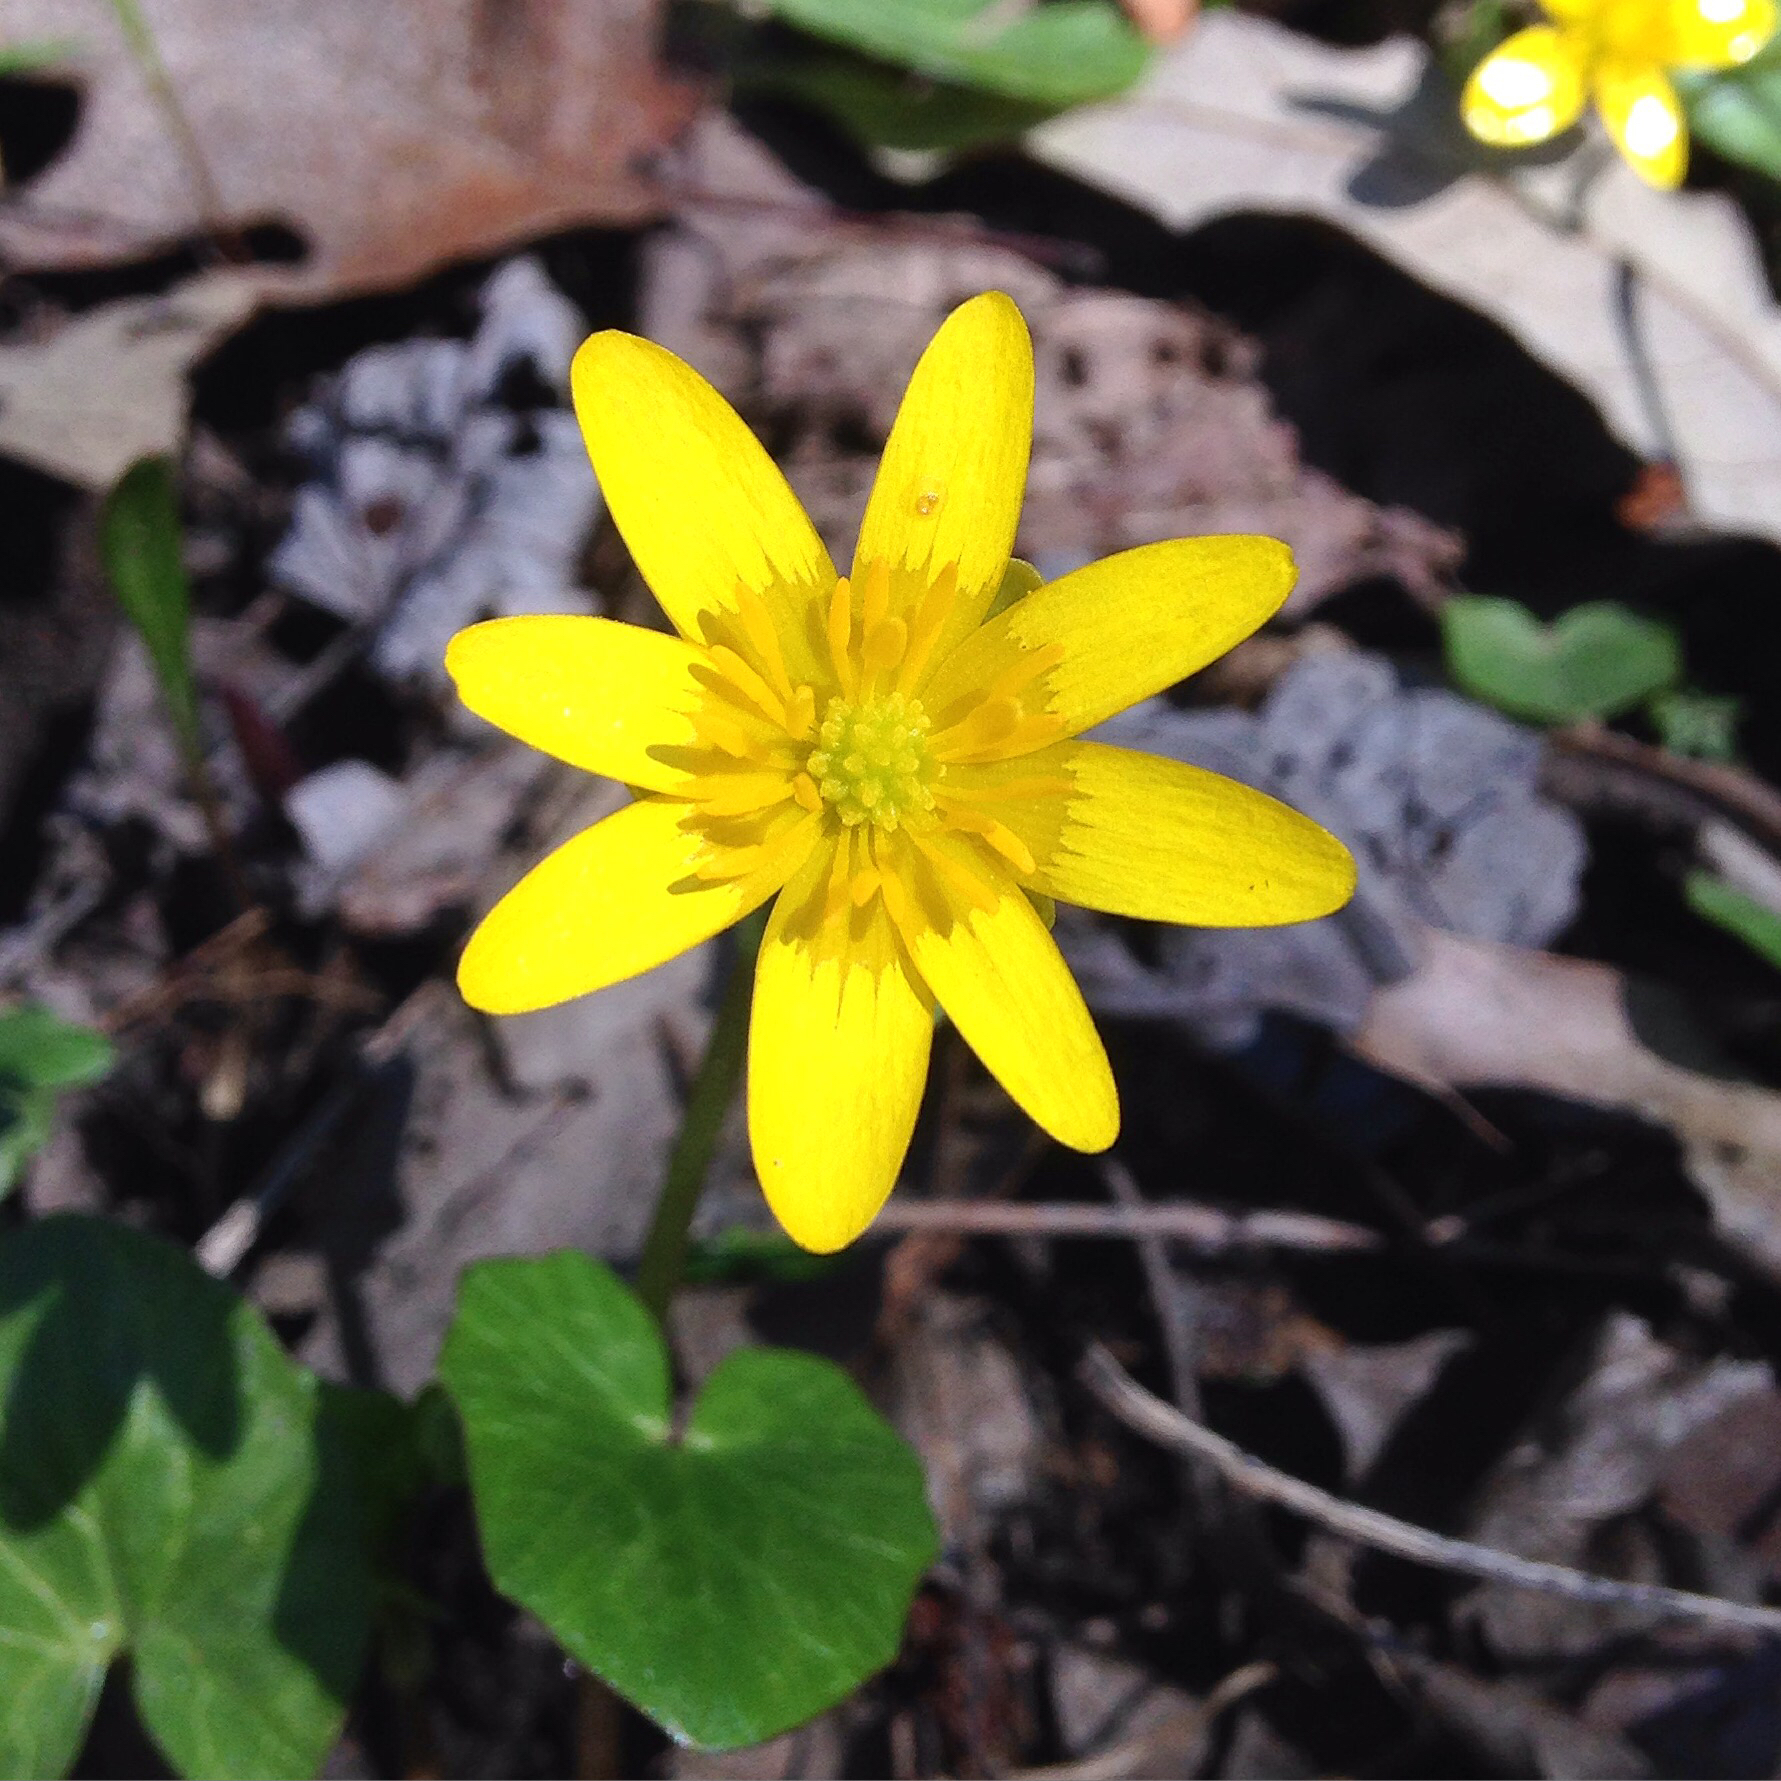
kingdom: Plantae
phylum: Tracheophyta
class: Magnoliopsida
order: Ranunculales
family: Ranunculaceae
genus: Ficaria
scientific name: Ficaria verna
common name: Lesser celandine
